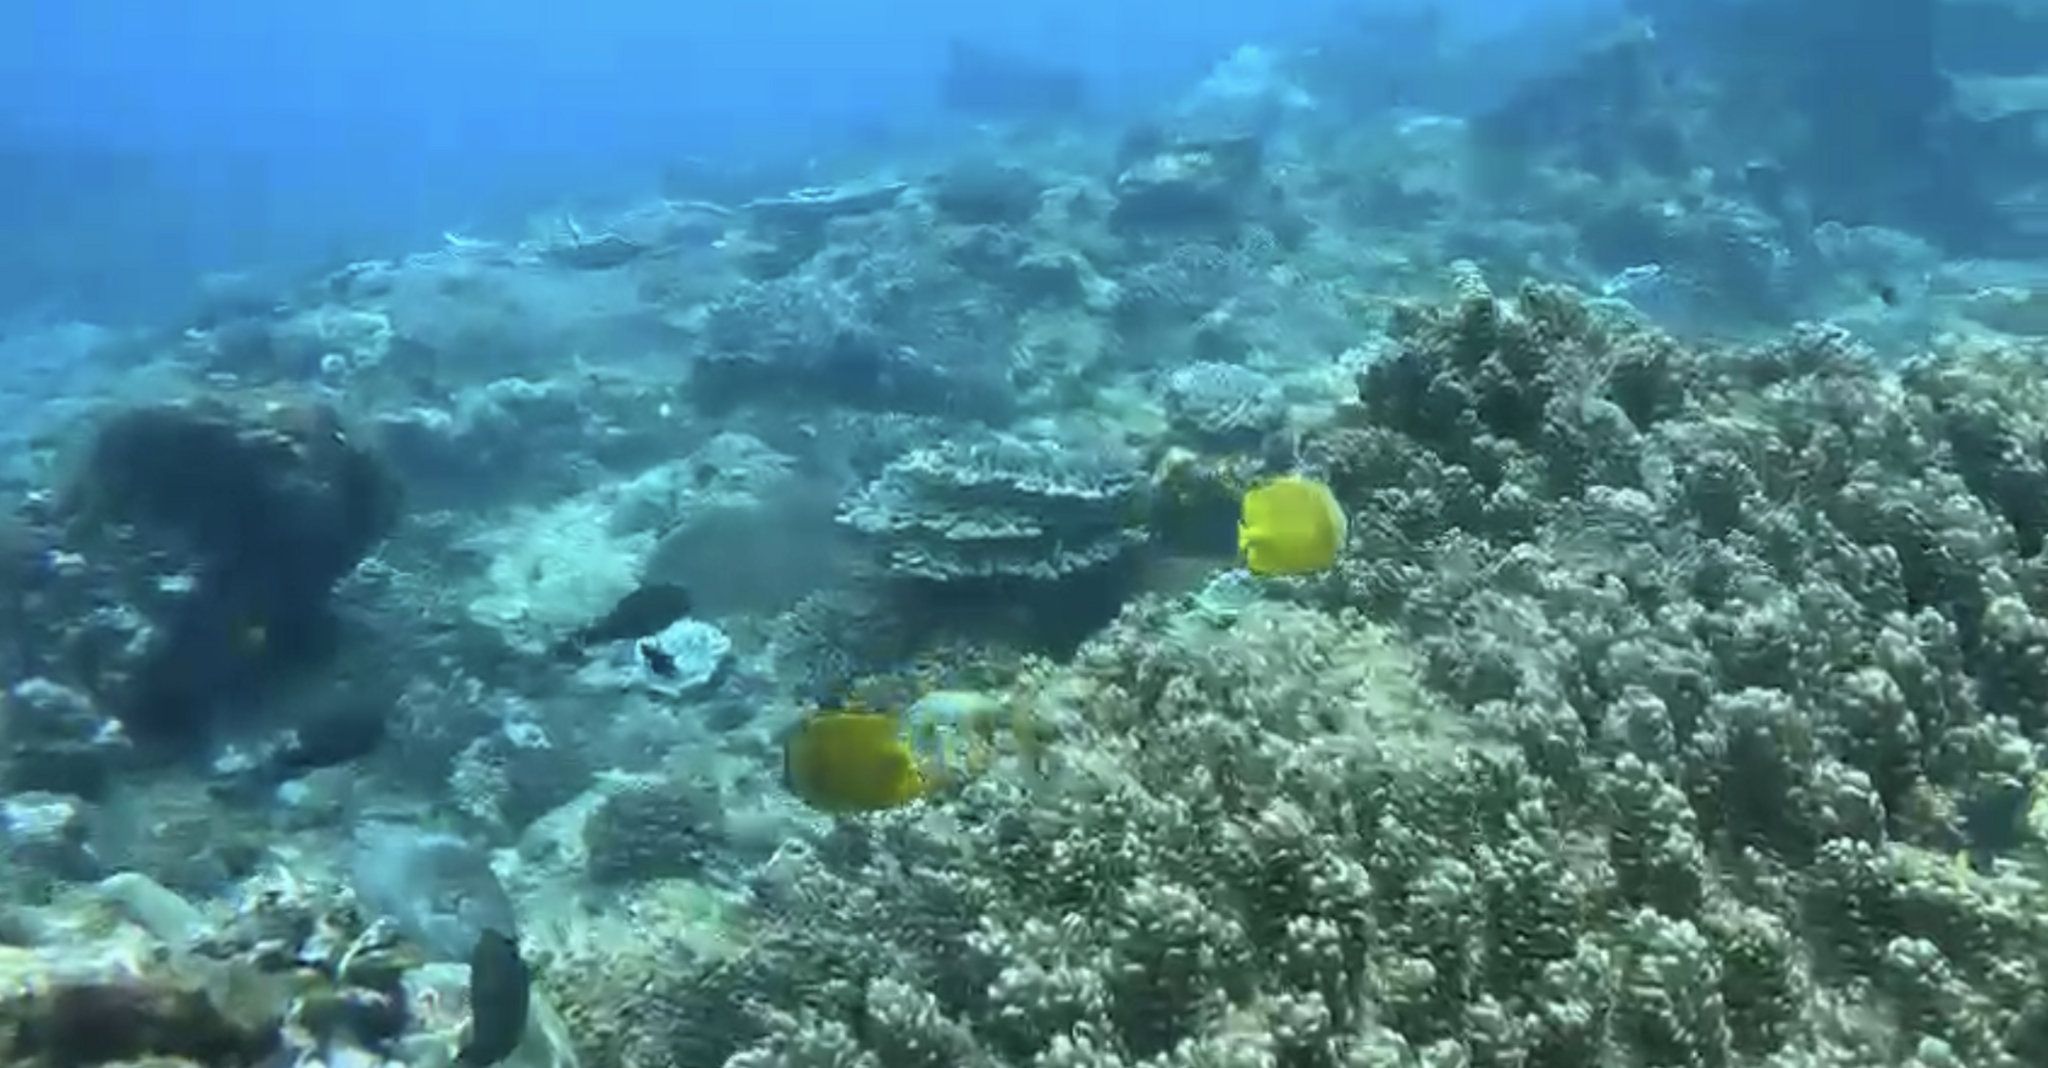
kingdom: Animalia
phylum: Chordata
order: Perciformes
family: Chaetodontidae
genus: Chaetodon
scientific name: Chaetodon kleinii
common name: Klein's butterflyfish
